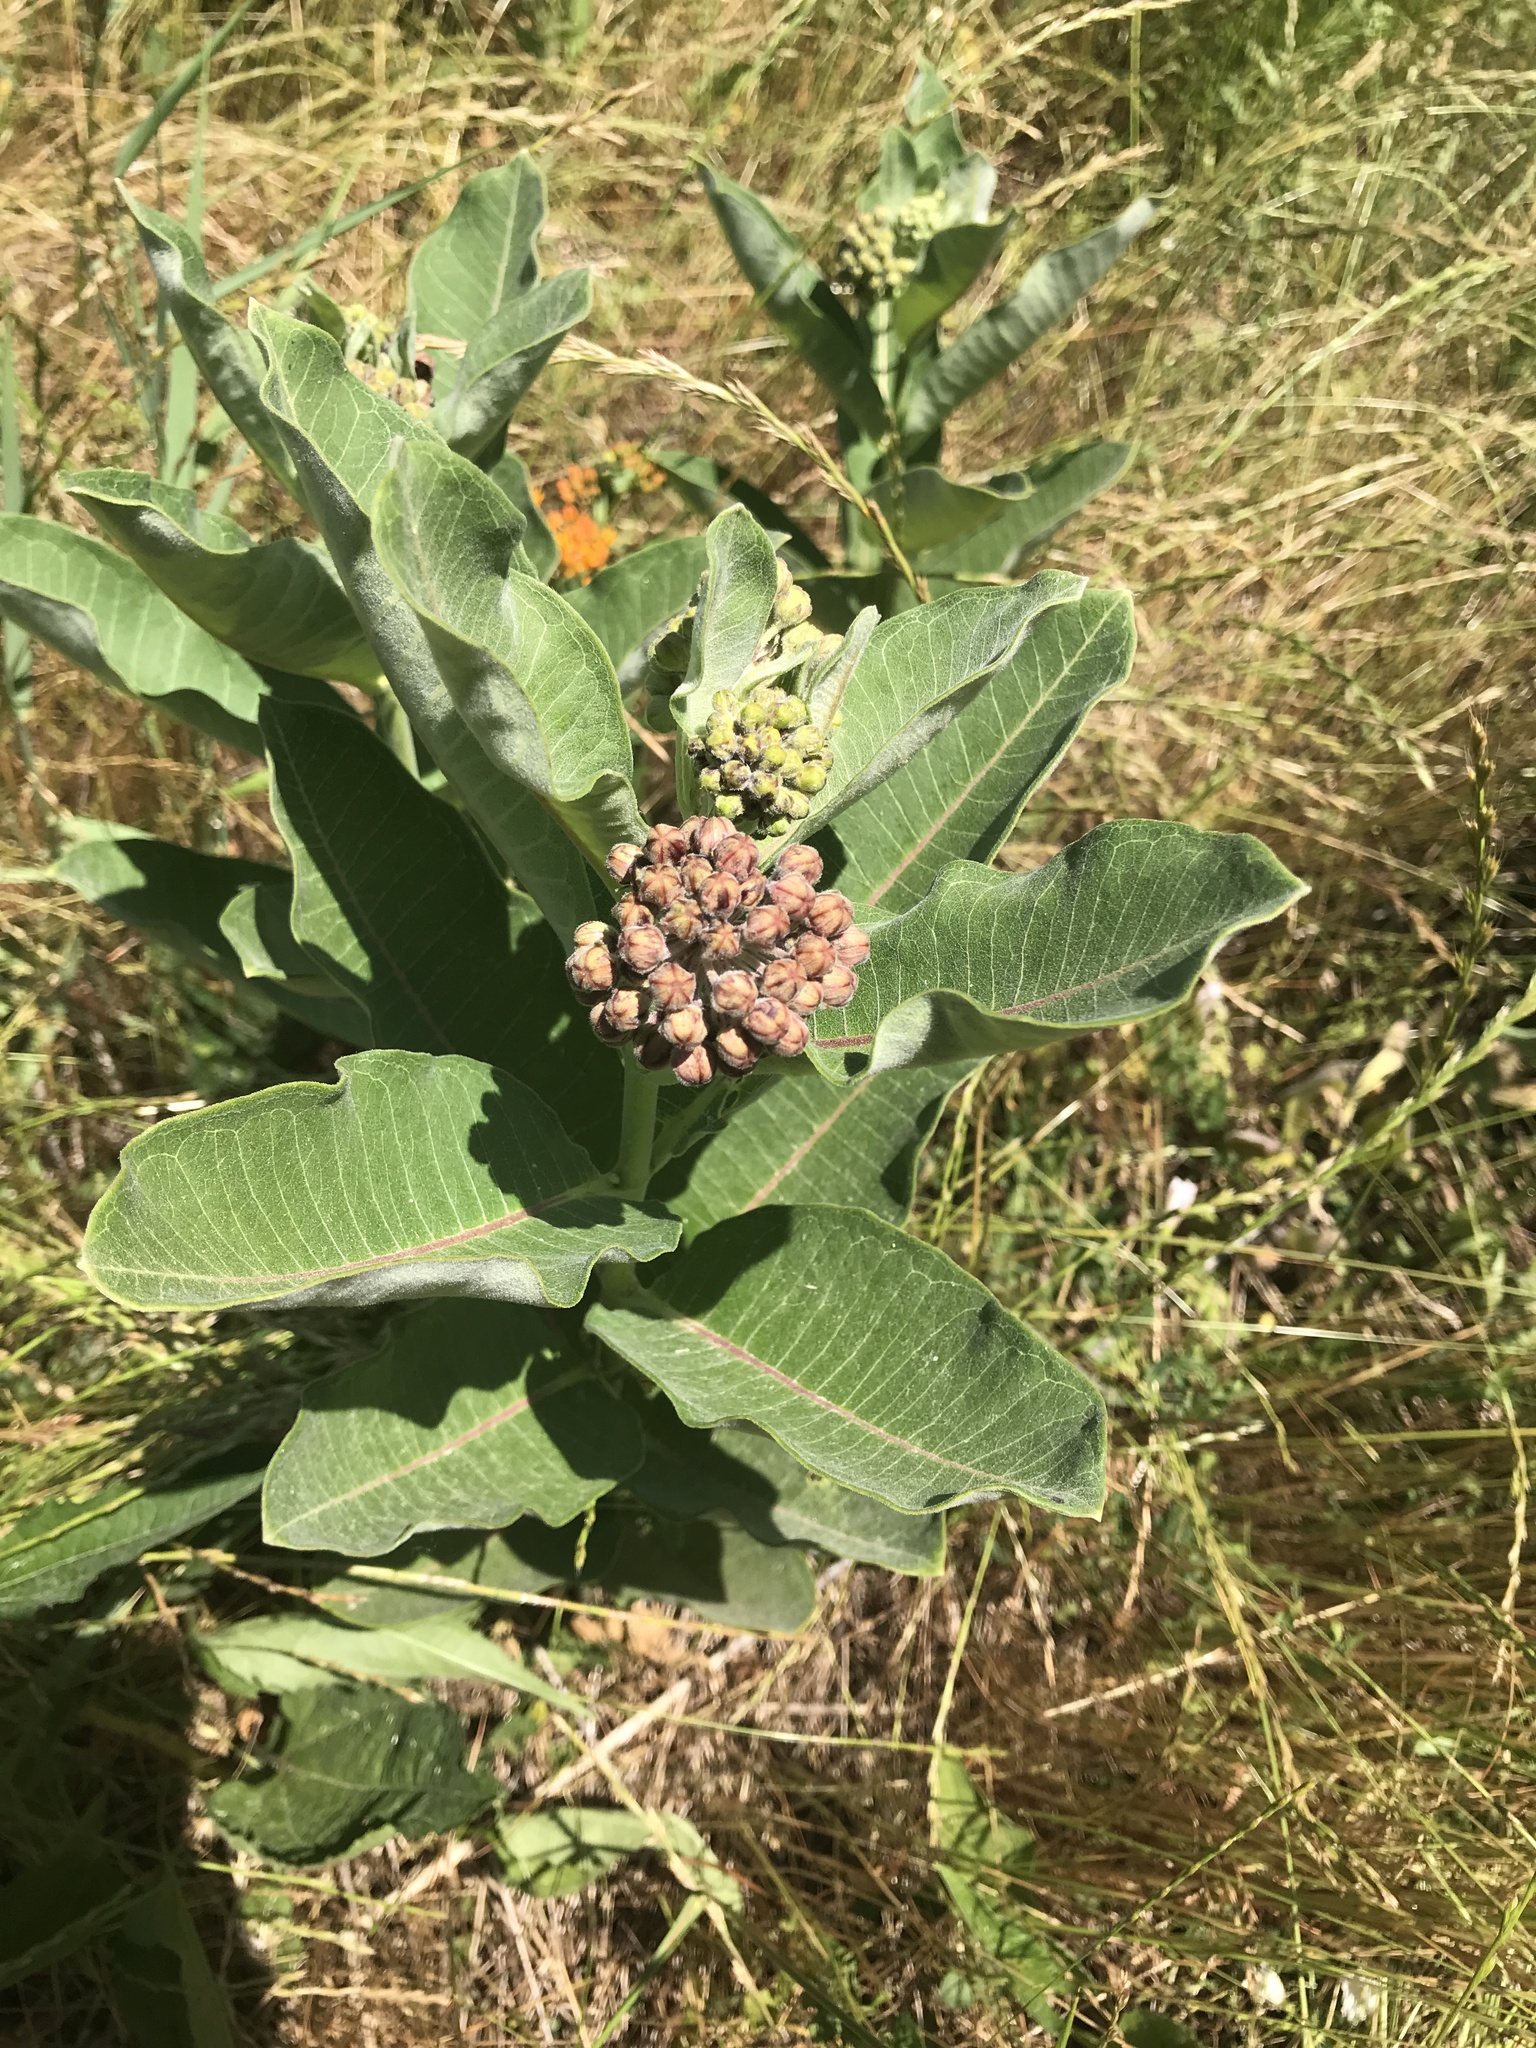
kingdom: Plantae
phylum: Tracheophyta
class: Magnoliopsida
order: Gentianales
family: Apocynaceae
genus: Asclepias
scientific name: Asclepias syriaca
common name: Common milkweed
